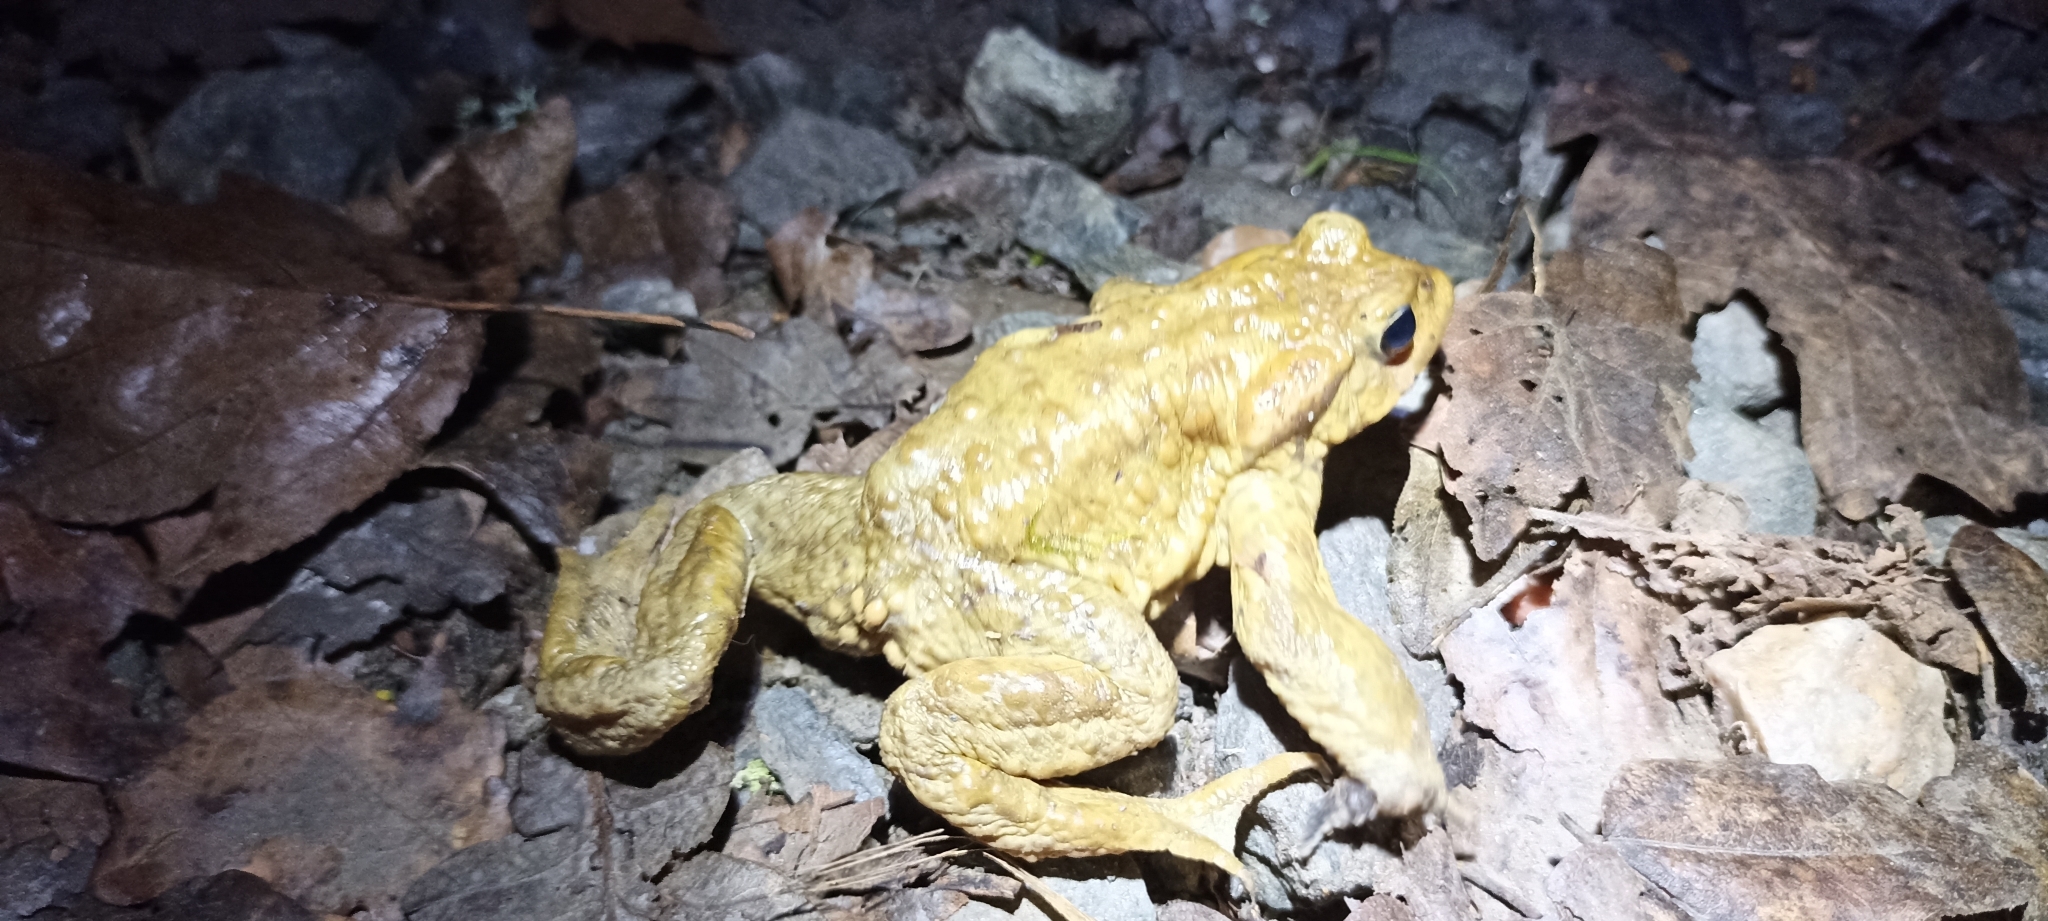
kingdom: Animalia
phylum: Chordata
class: Amphibia
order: Anura
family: Bufonidae
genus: Bufo
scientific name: Bufo spinosus
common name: Western common toad
